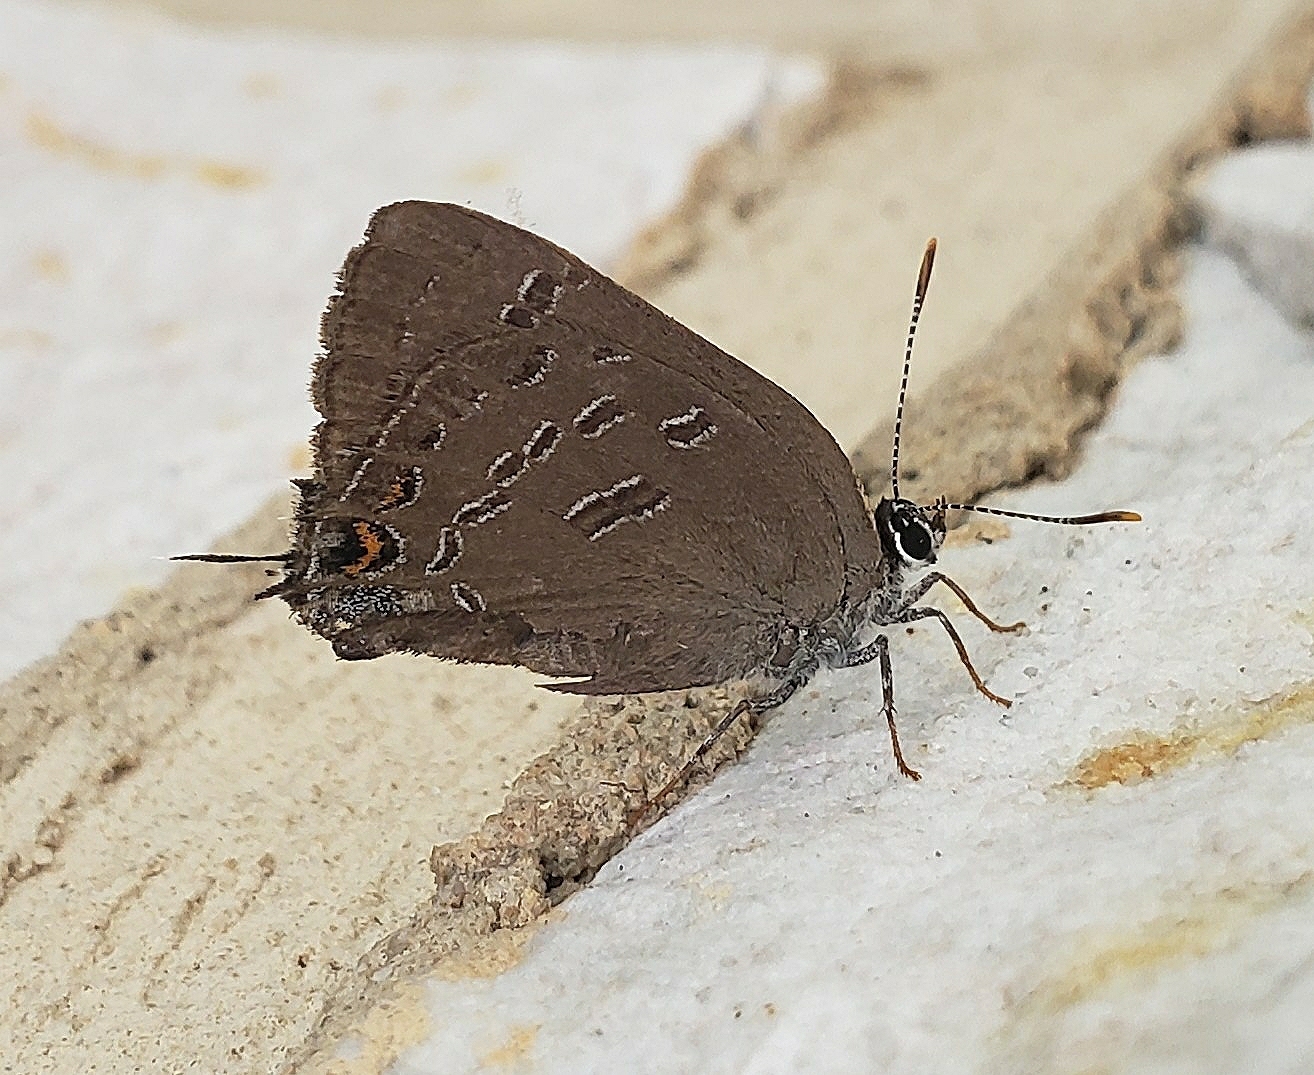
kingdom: Animalia
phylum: Arthropoda
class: Insecta
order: Lepidoptera
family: Lycaenidae
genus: Satyrium
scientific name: Satyrium calanus
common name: Banded hairstreak
